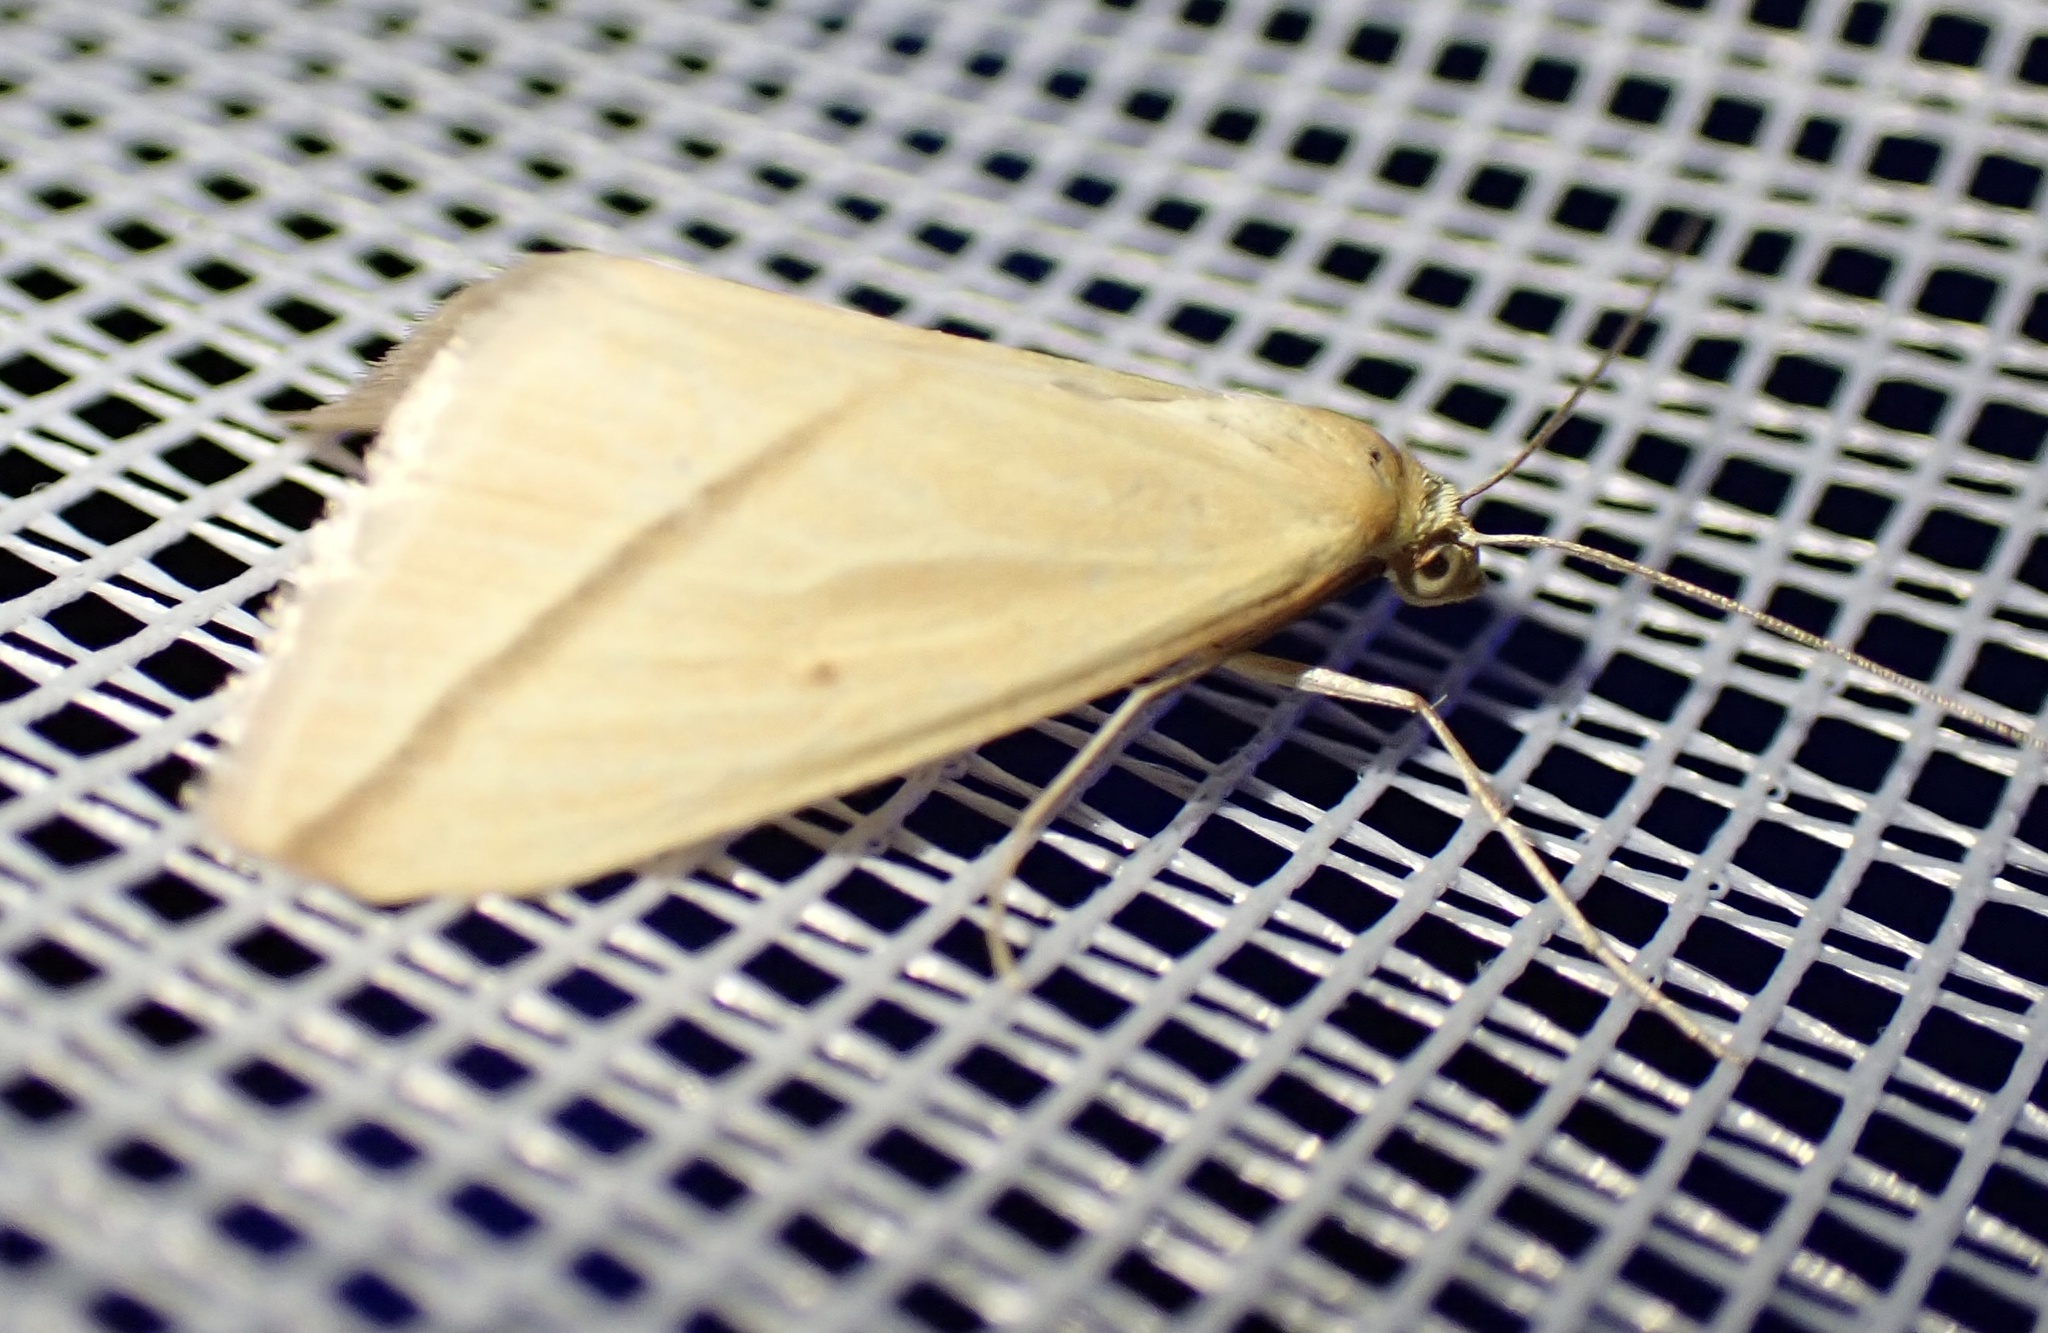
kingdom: Animalia
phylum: Arthropoda
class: Insecta
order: Lepidoptera
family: Geometridae
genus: Rhodometra
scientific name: Rhodometra sacraria
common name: Vestal
